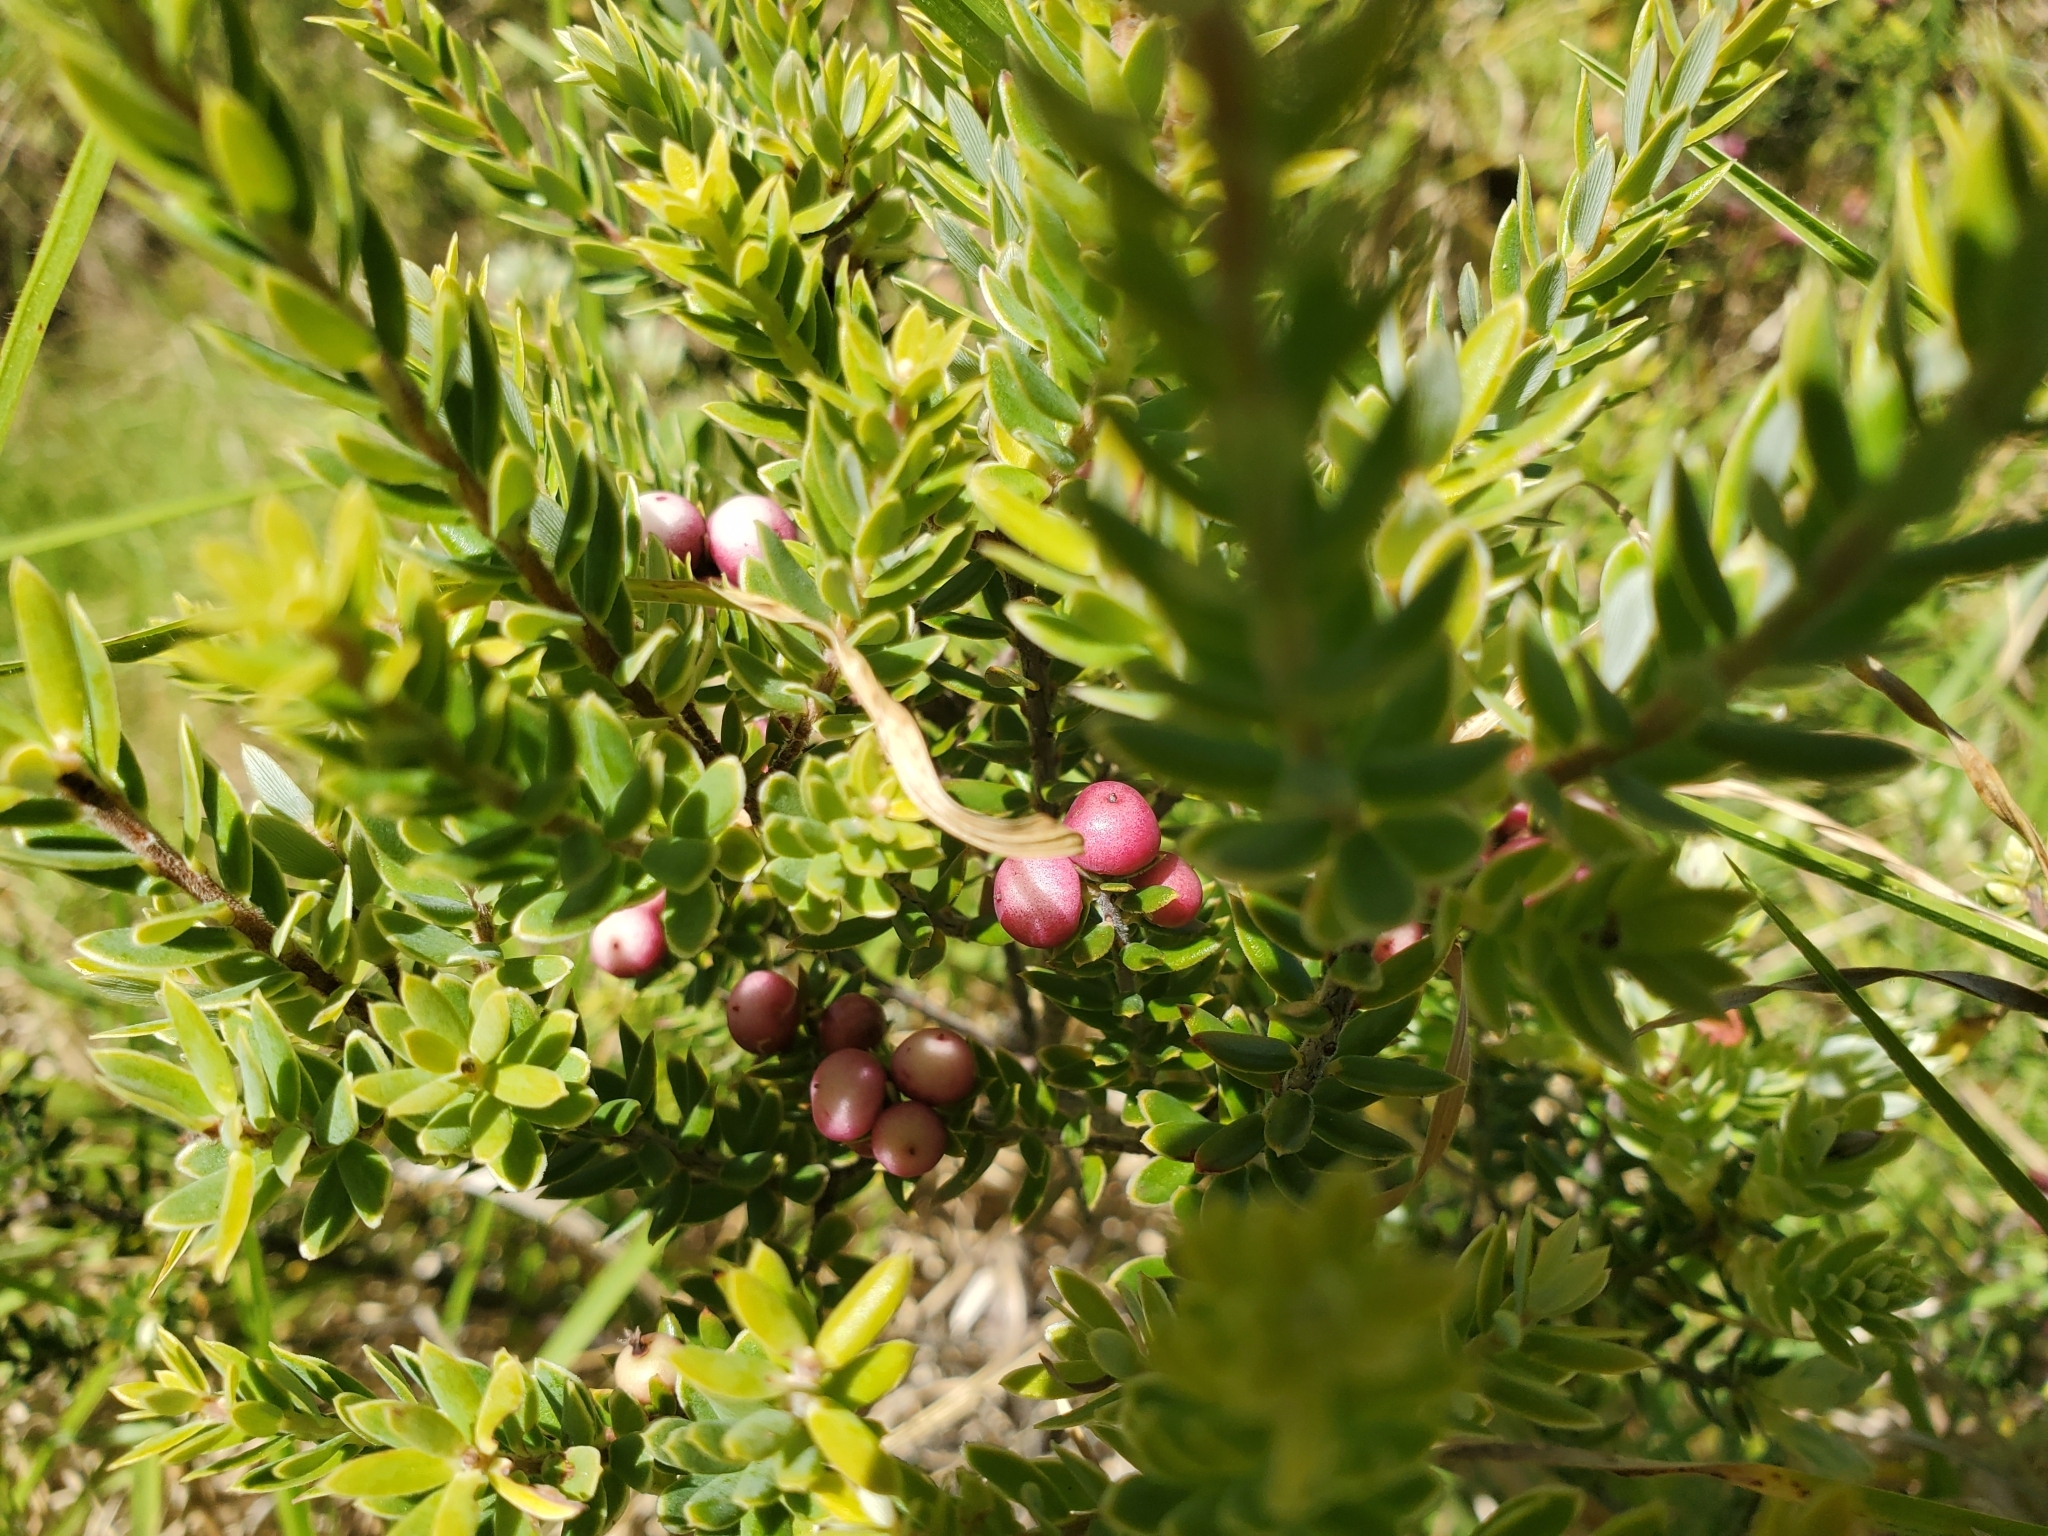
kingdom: Plantae
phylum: Tracheophyta
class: Magnoliopsida
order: Ericales
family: Ericaceae
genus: Leptecophylla
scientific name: Leptecophylla tameiameiae
